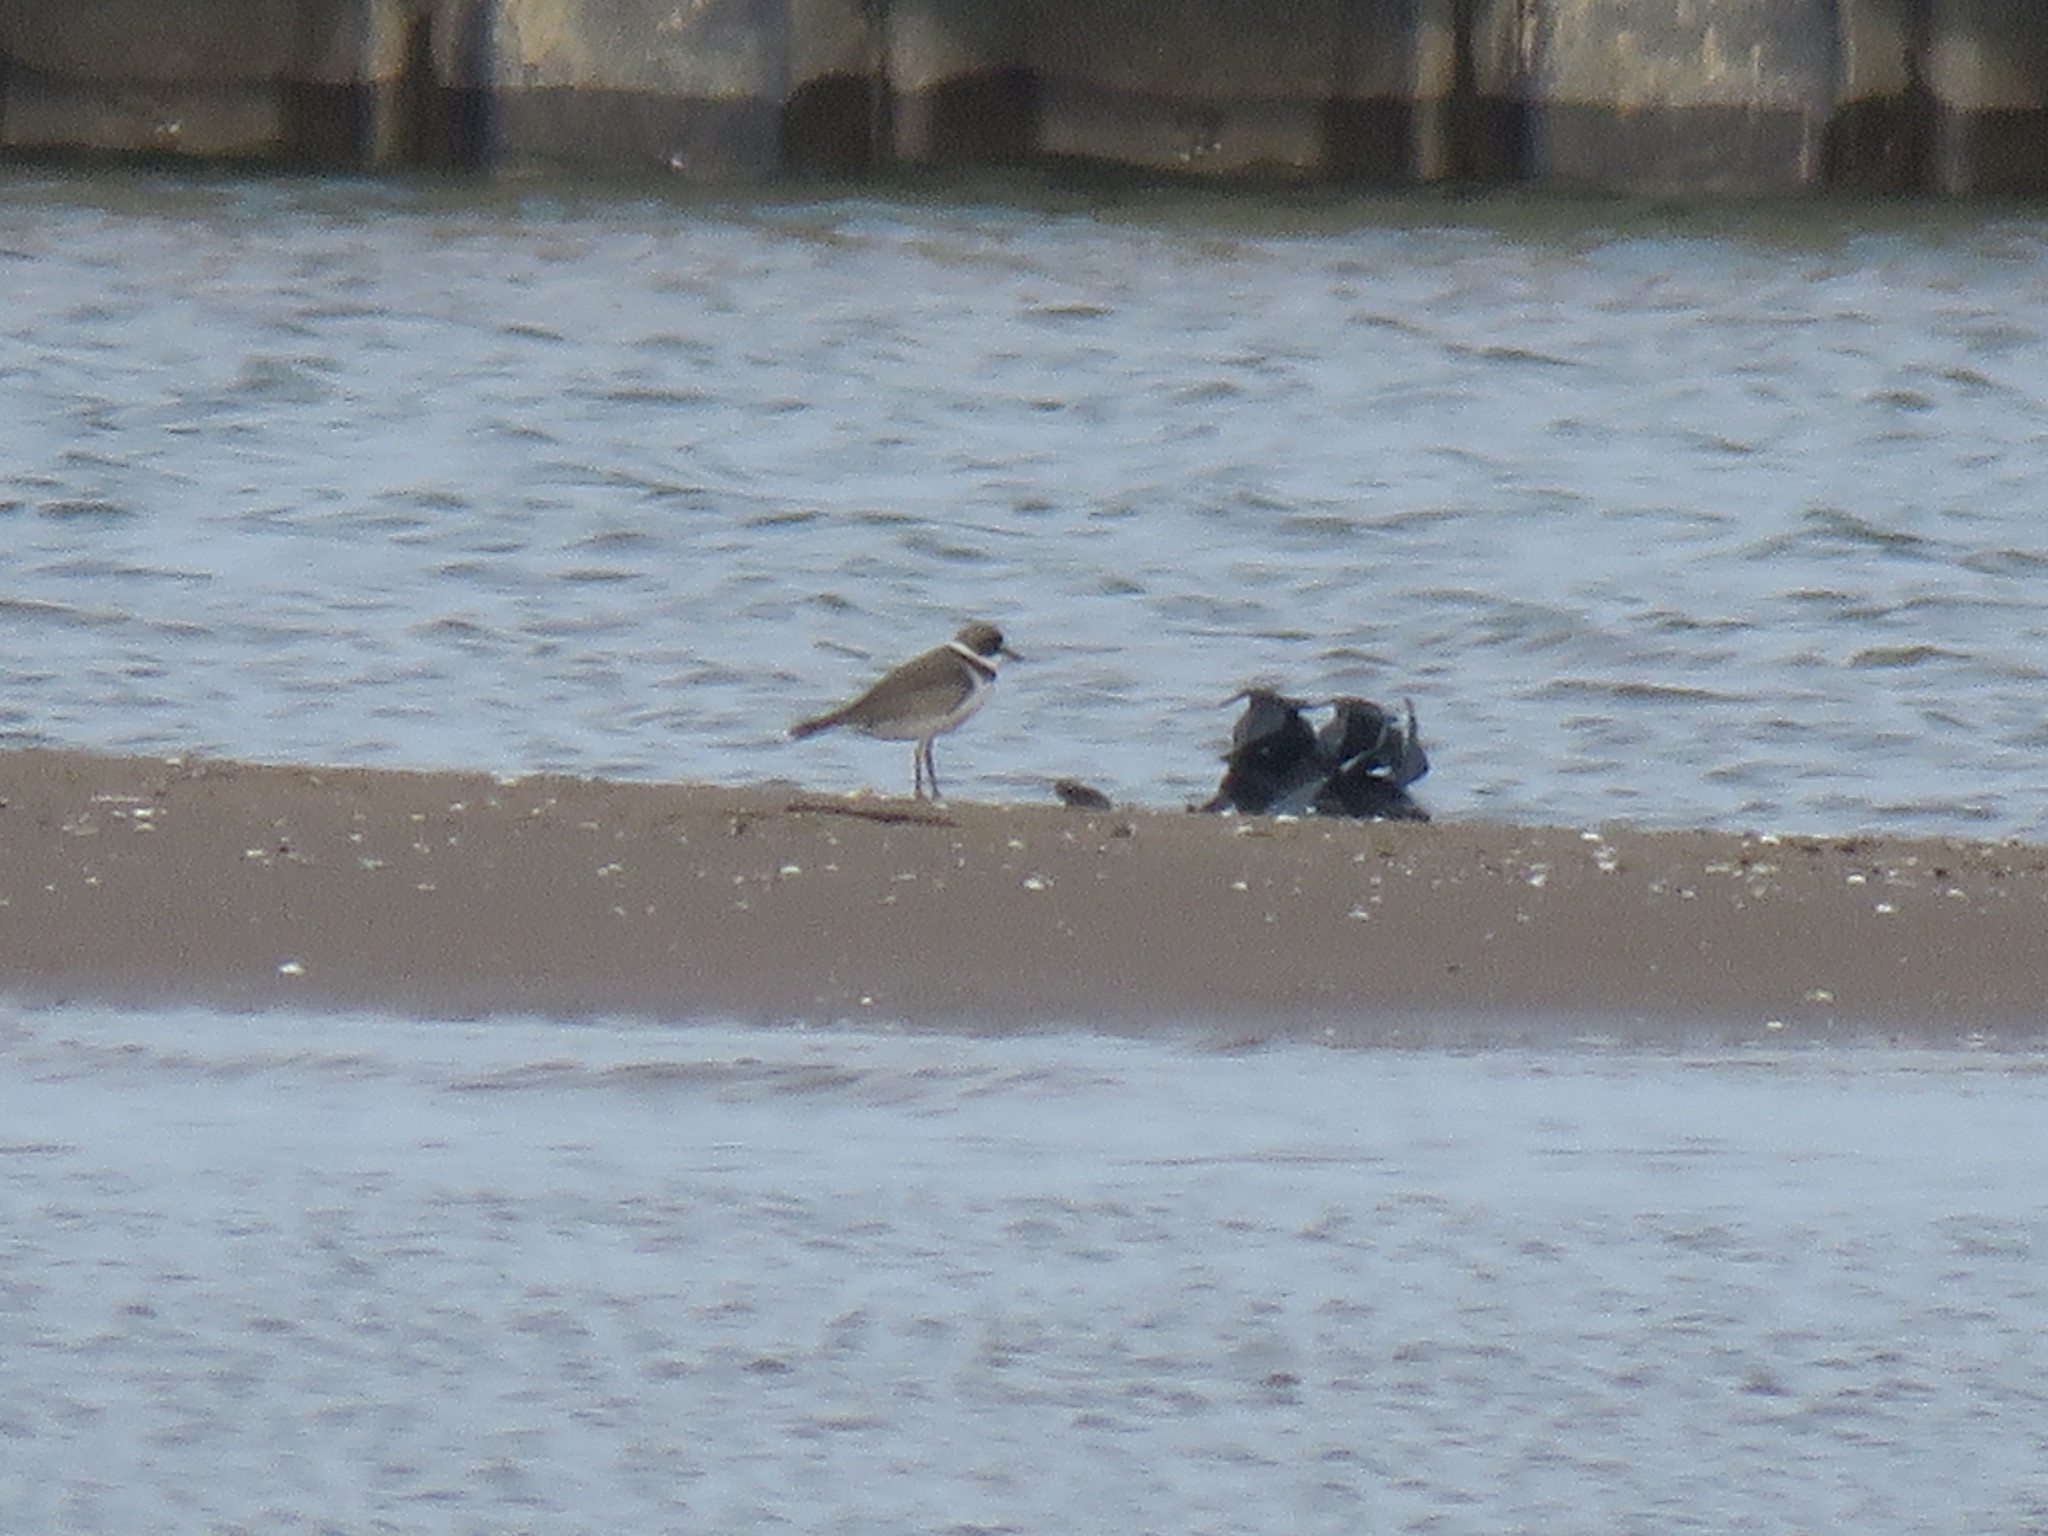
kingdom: Animalia
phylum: Chordata
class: Aves
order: Charadriiformes
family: Charadriidae
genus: Charadrius
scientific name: Charadrius semipalmatus
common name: Semipalmated plover
